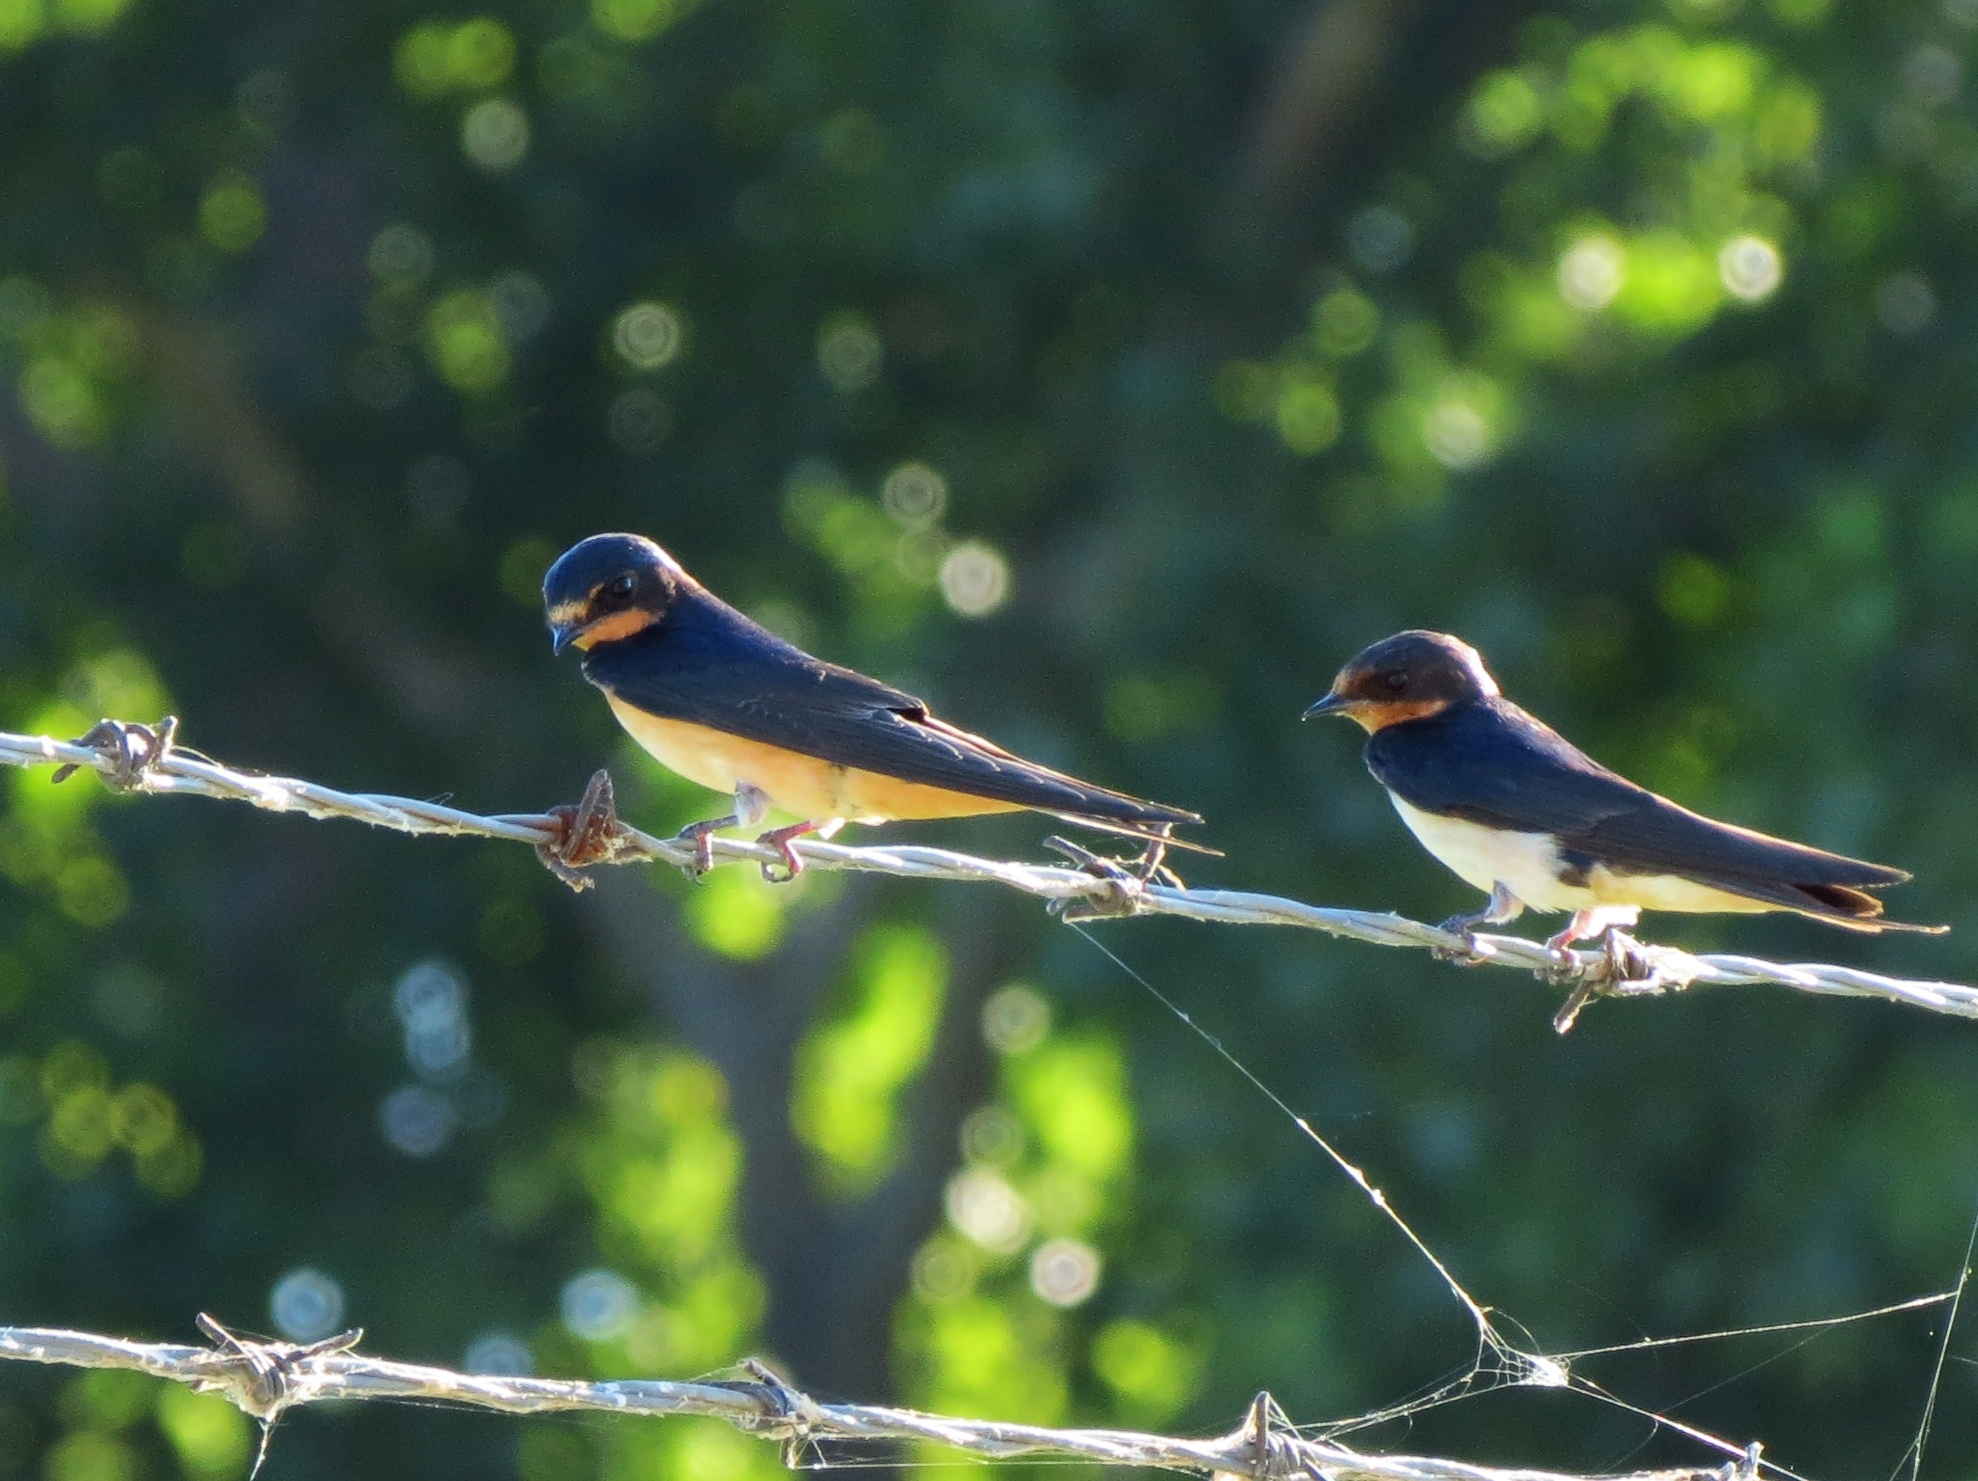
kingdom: Animalia
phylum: Chordata
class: Aves
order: Passeriformes
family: Hirundinidae
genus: Hirundo
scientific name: Hirundo rustica
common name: Barn swallow
